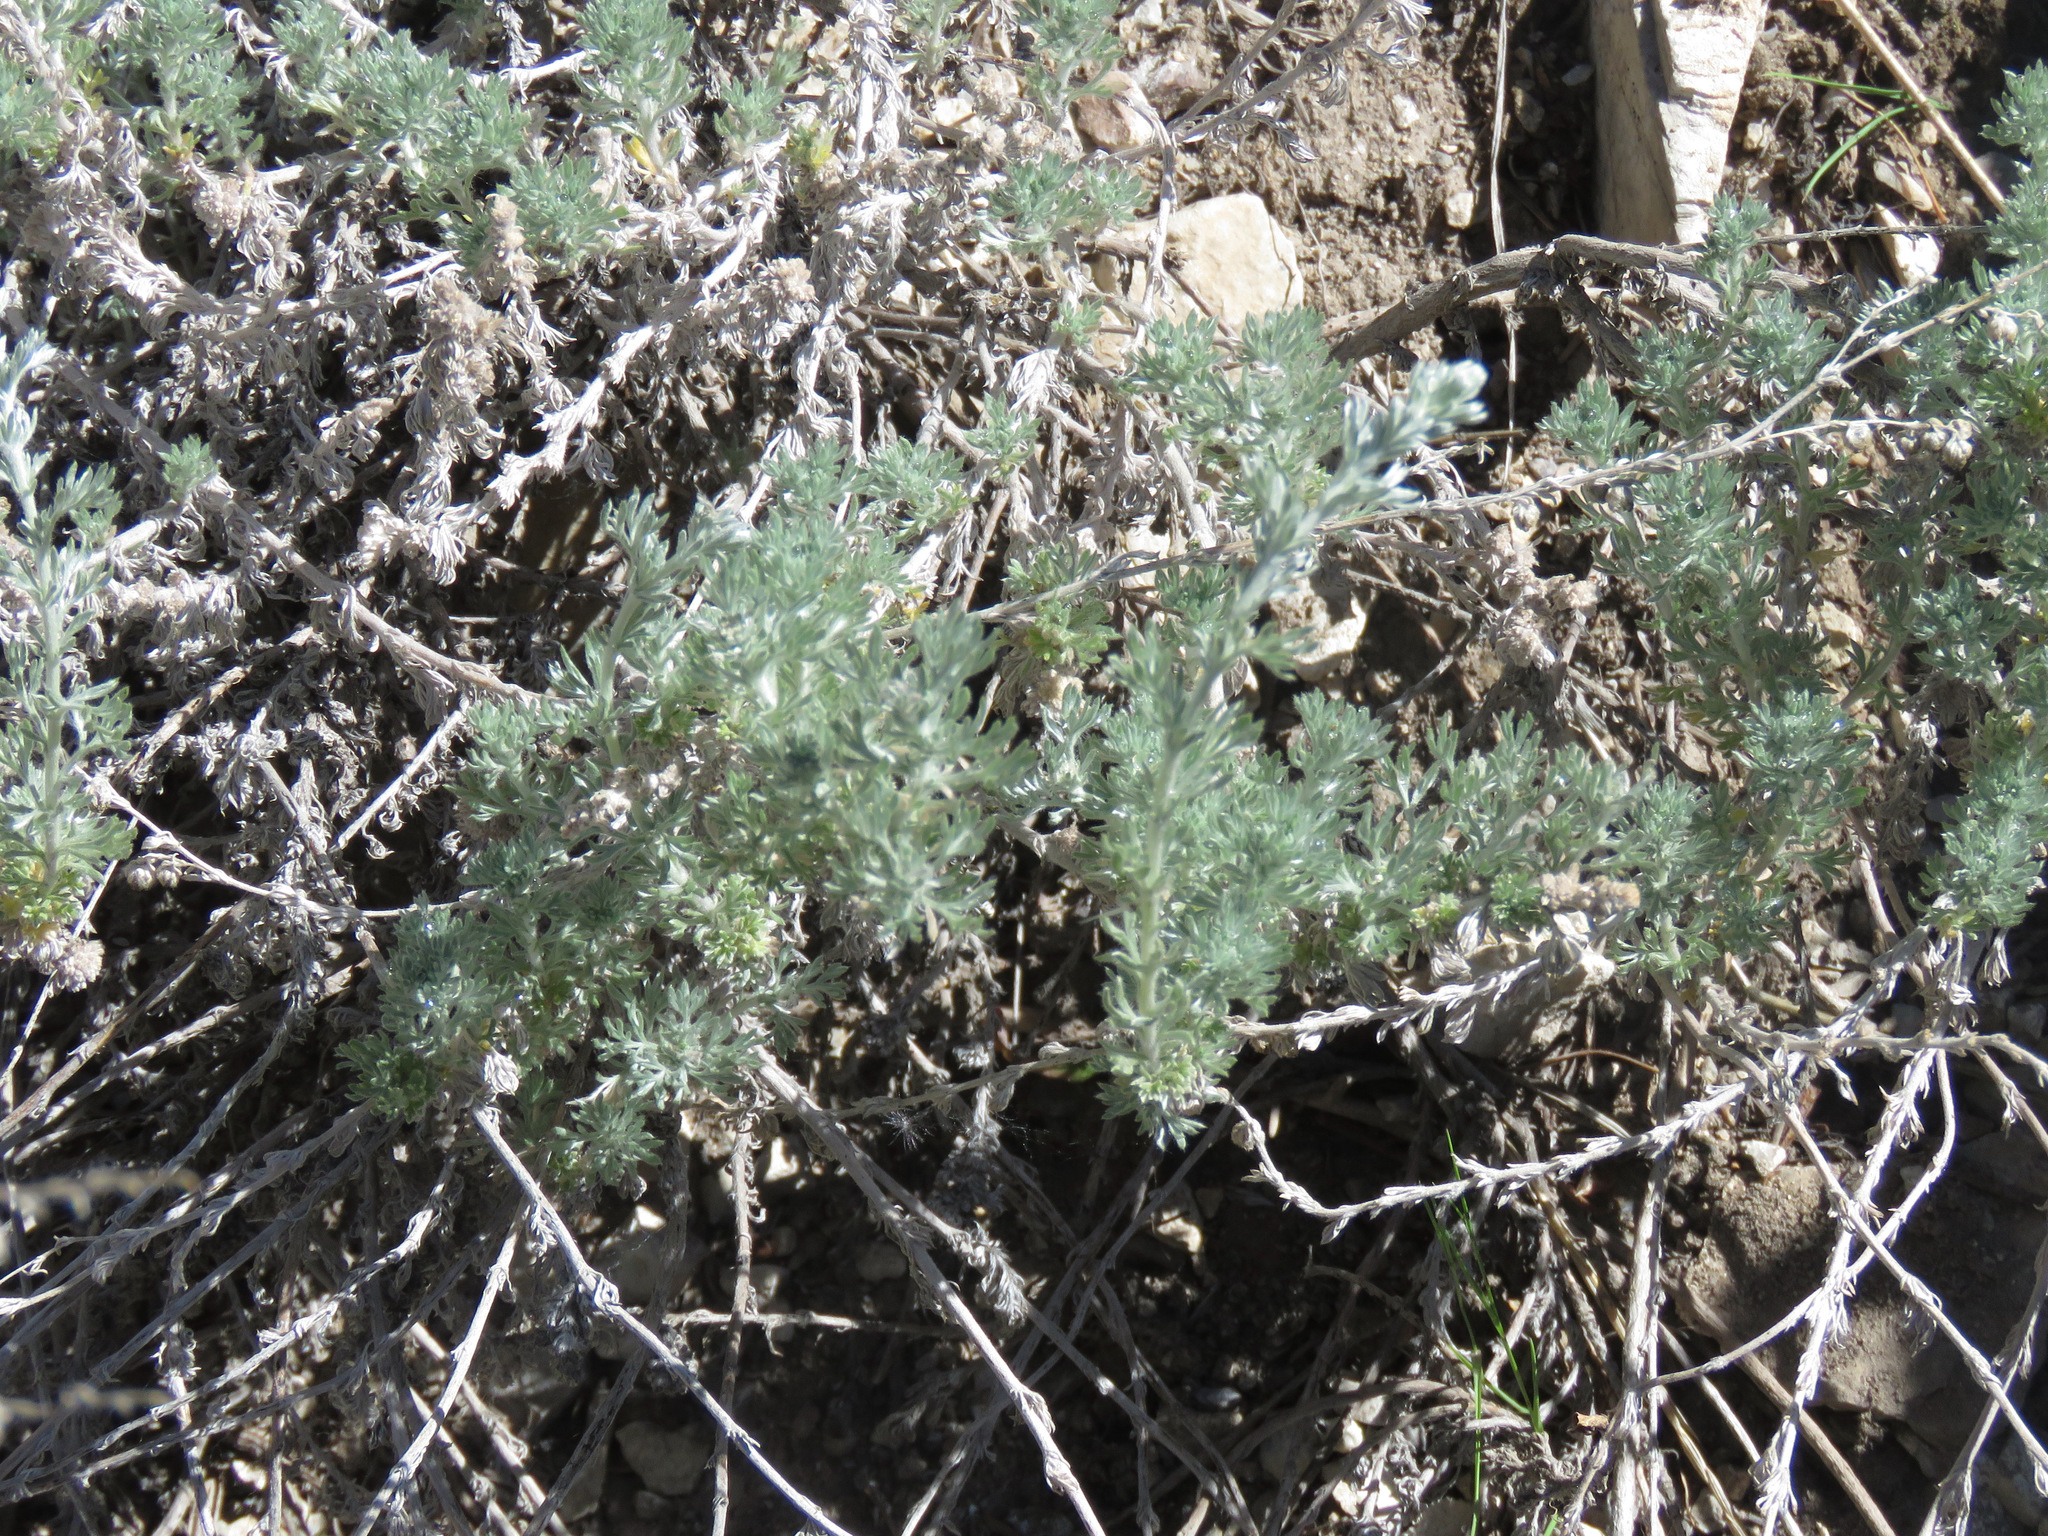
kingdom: Plantae
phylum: Tracheophyta
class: Magnoliopsida
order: Asterales
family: Asteraceae
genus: Artemisia
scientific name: Artemisia frigida
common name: Prairie sagewort
